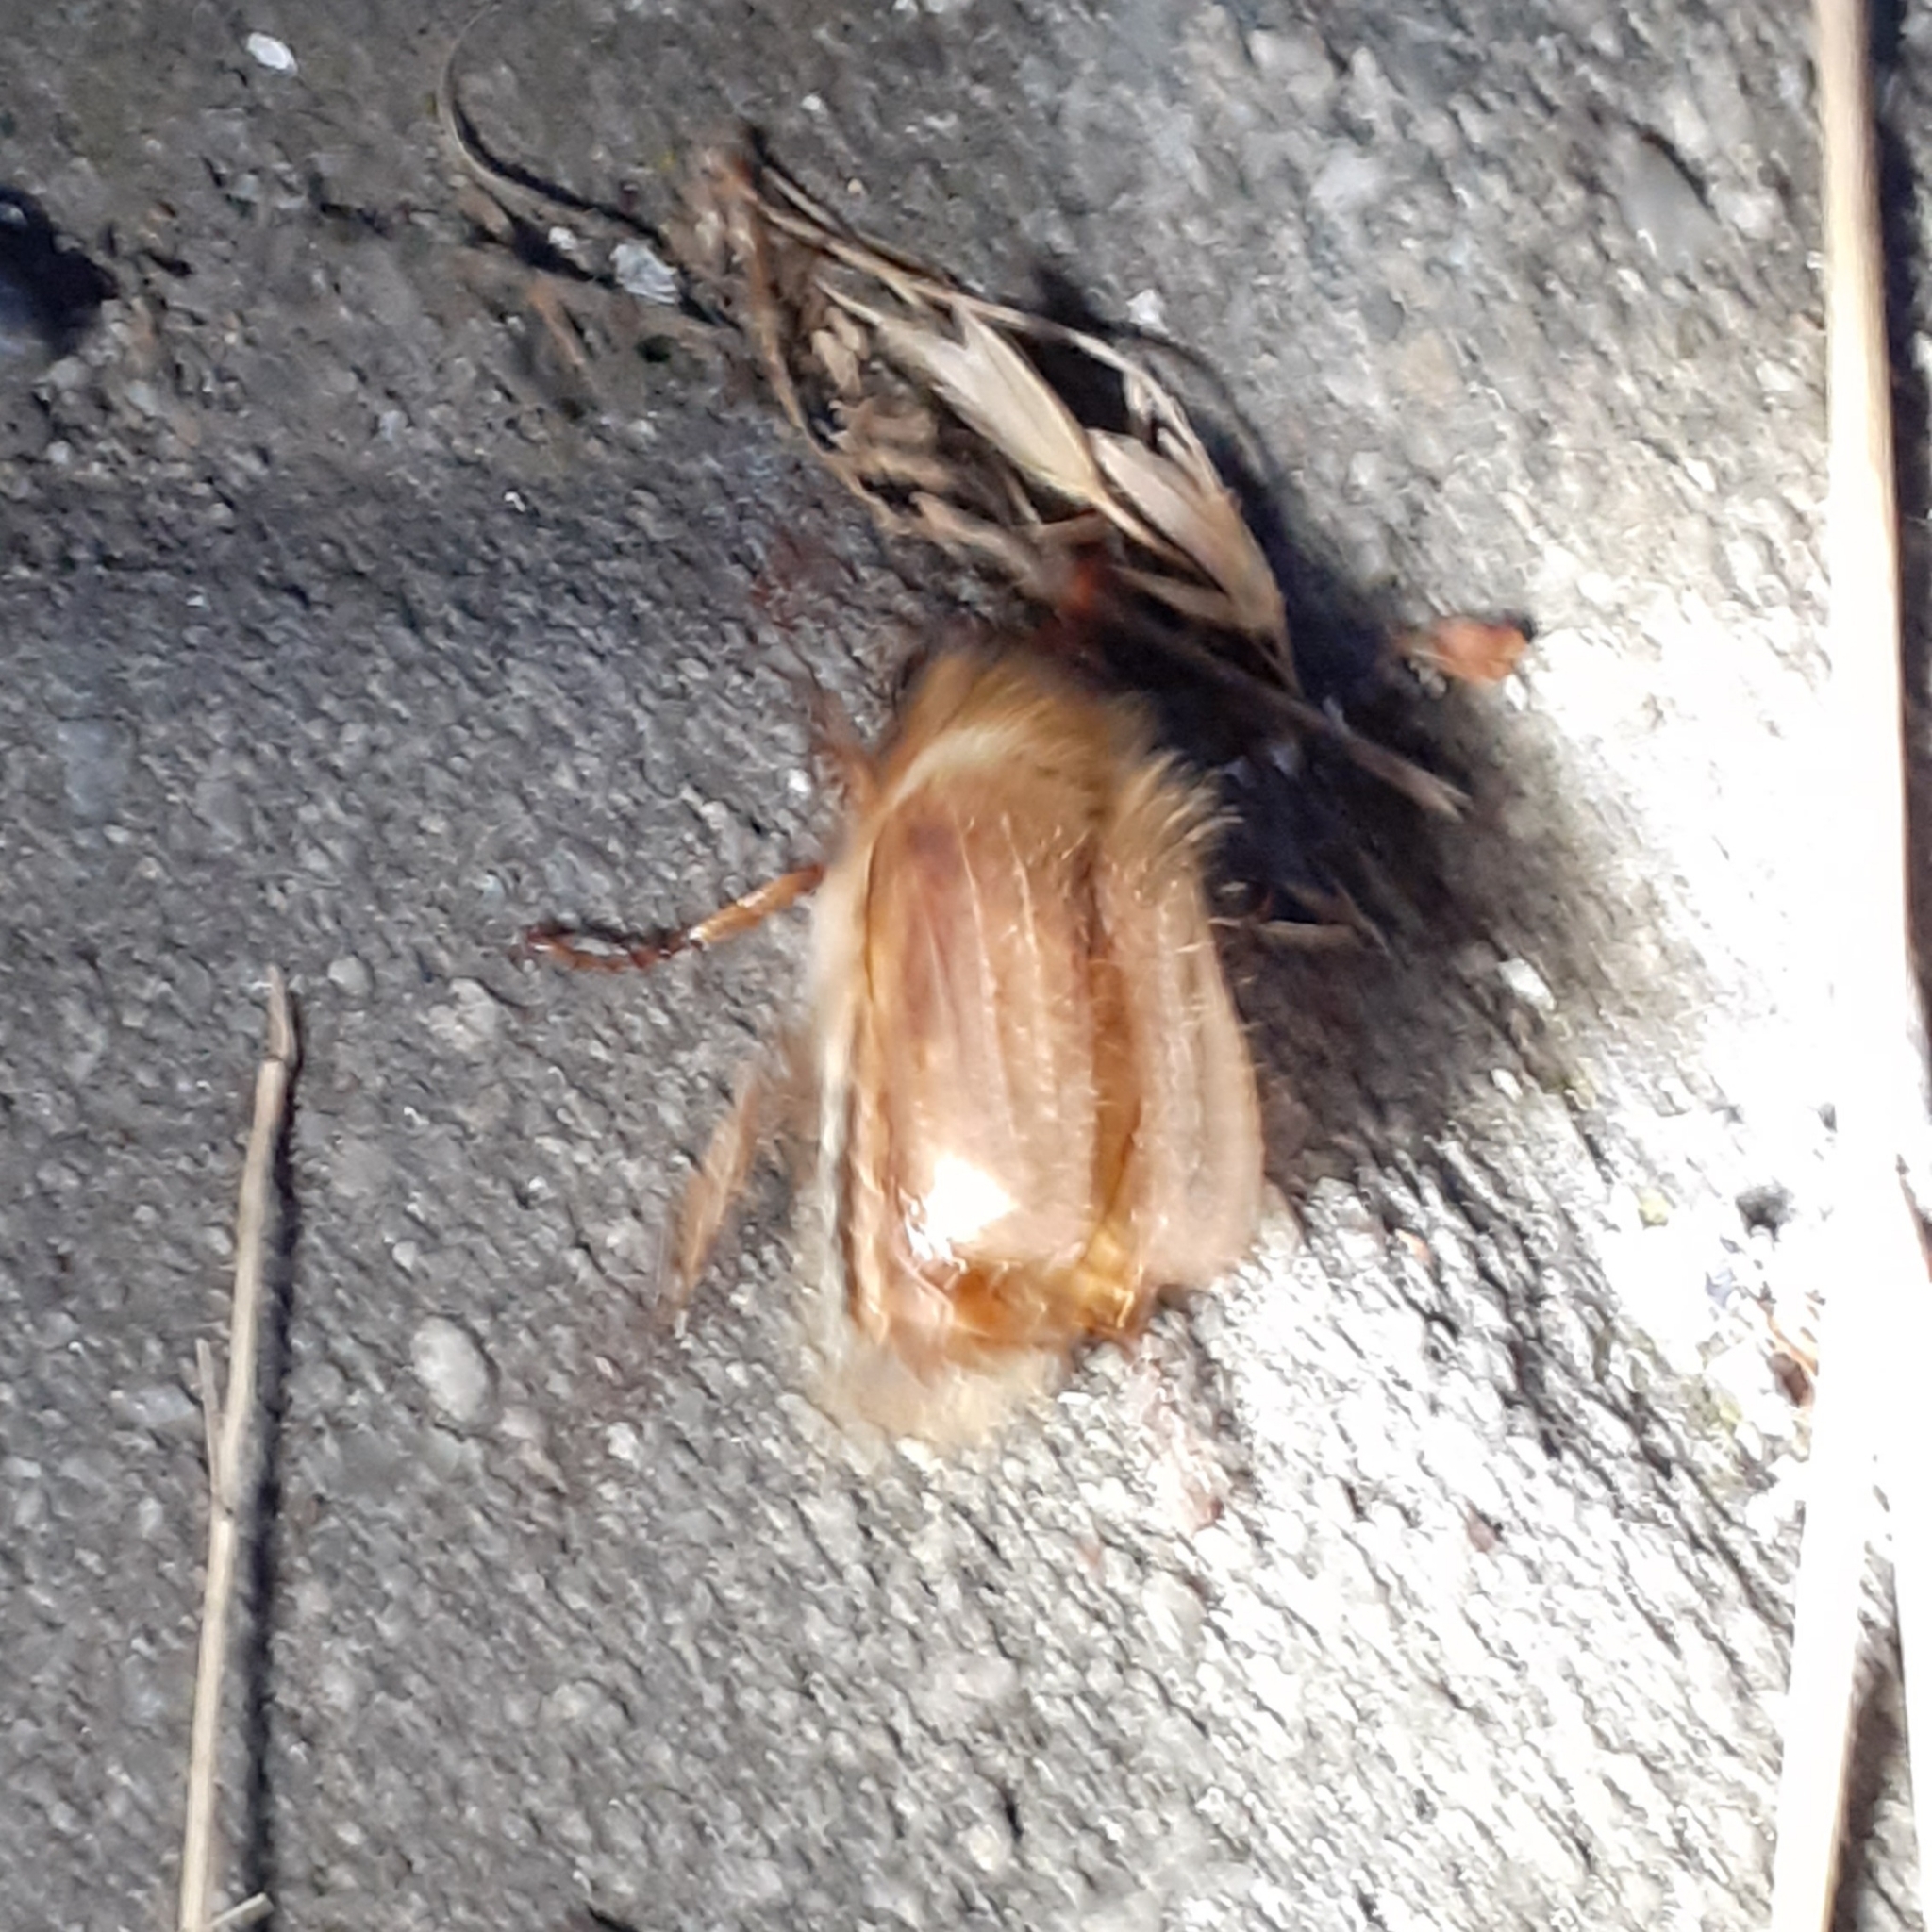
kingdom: Animalia
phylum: Arthropoda
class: Insecta
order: Coleoptera
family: Scarabaeidae
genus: Amphimallon
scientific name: Amphimallon solstitiale
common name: Summer chafer
